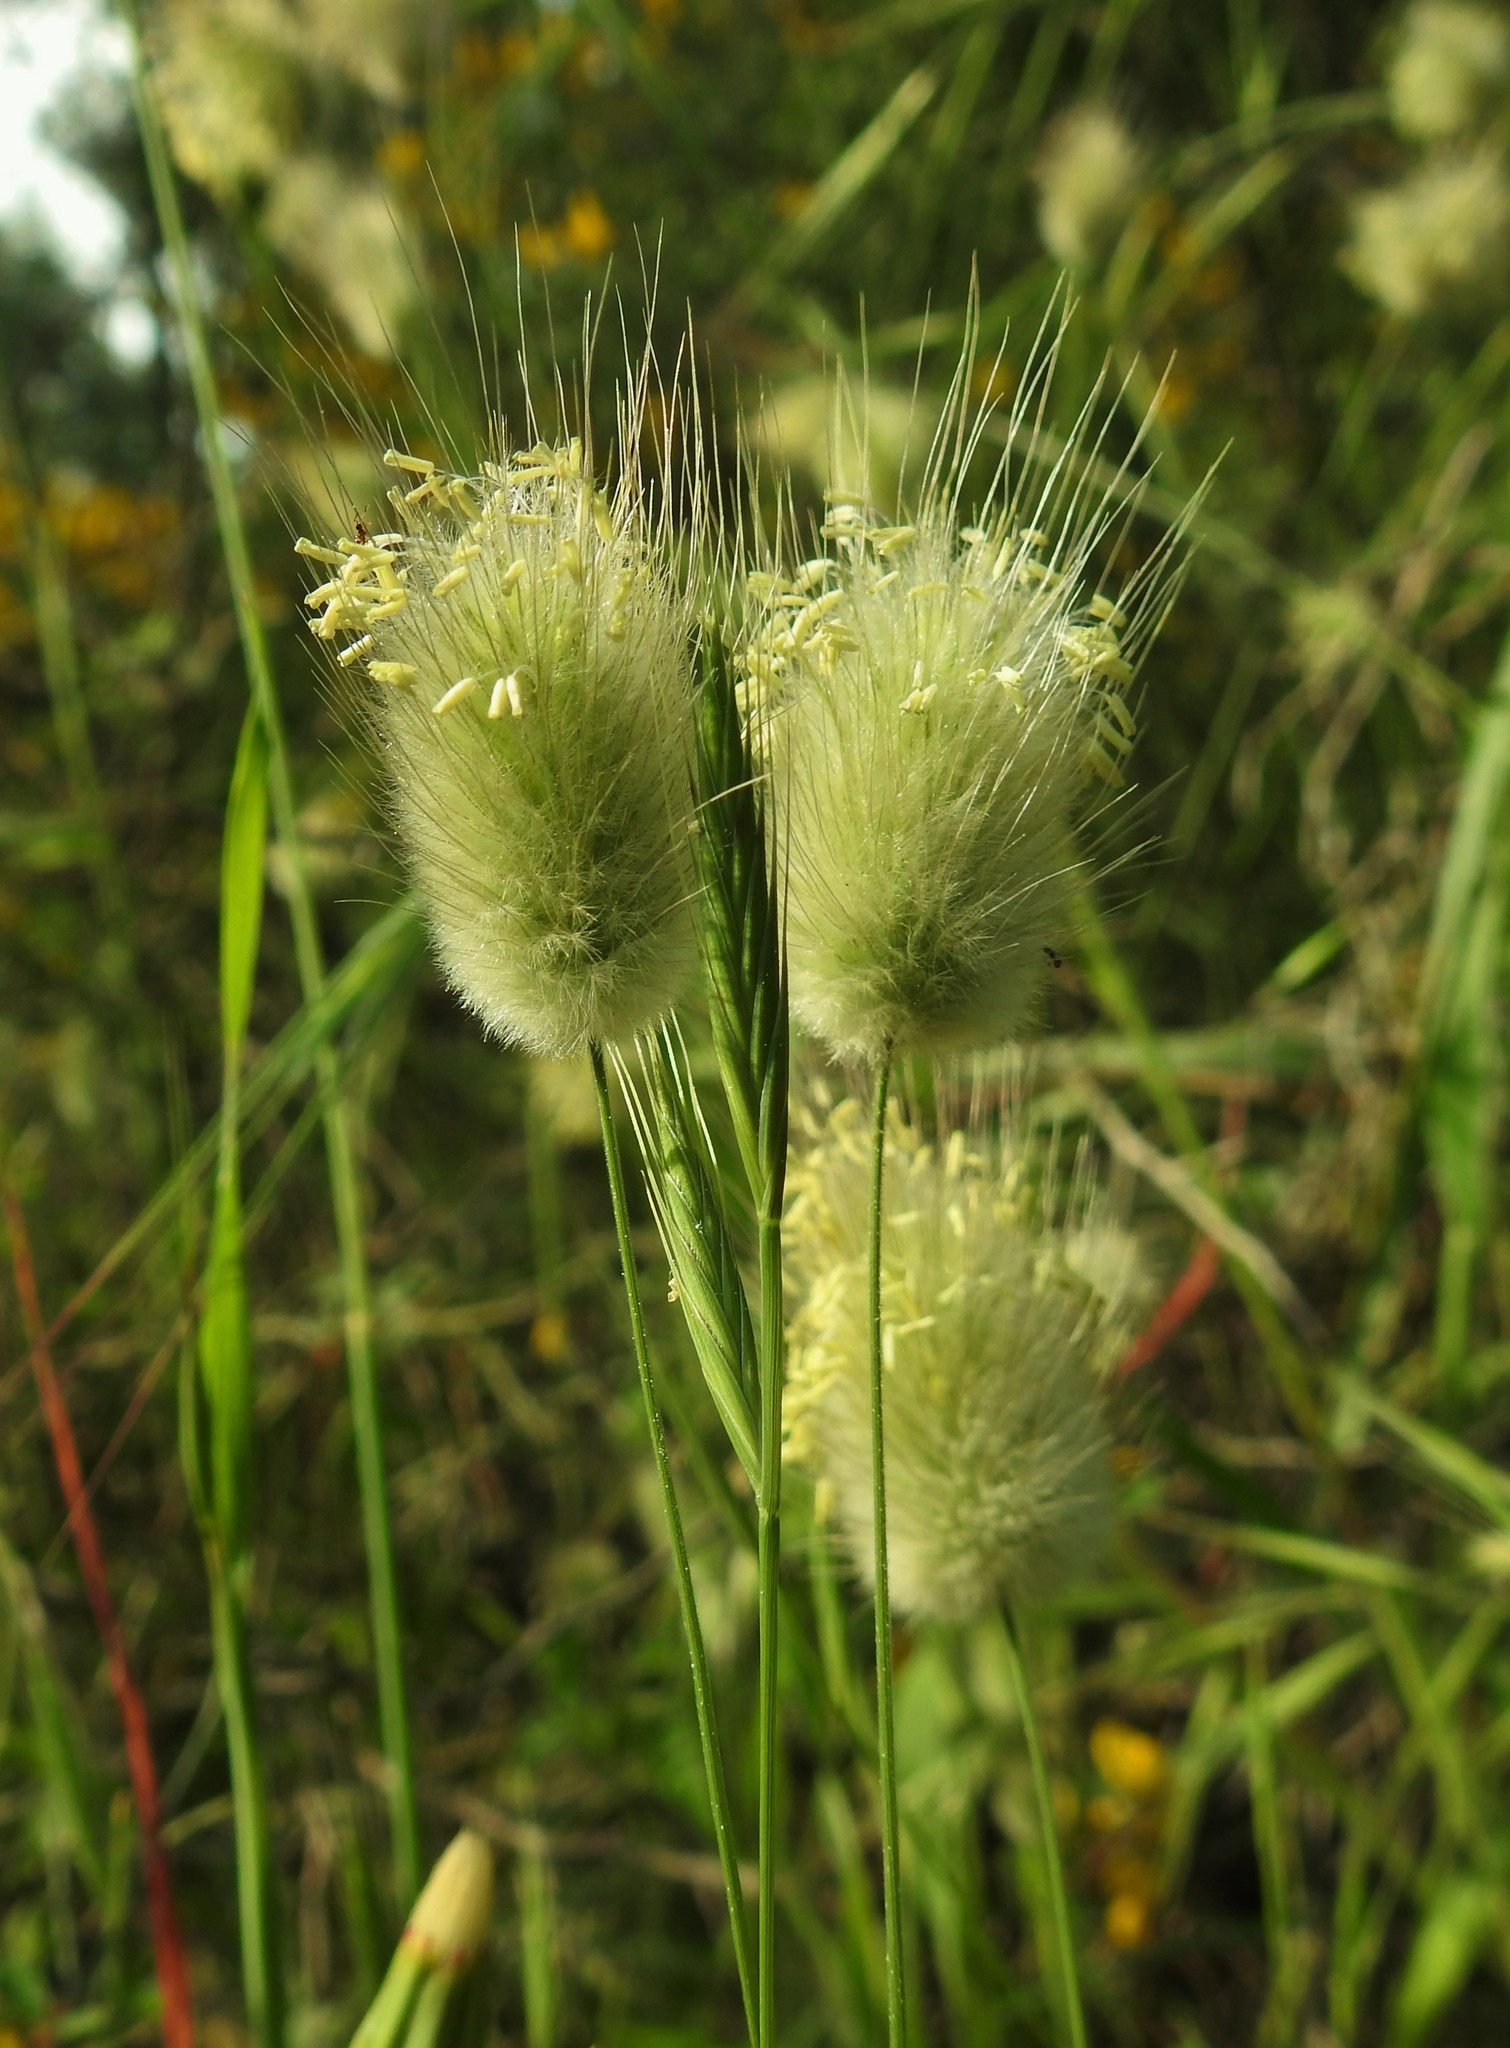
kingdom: Plantae
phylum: Tracheophyta
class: Liliopsida
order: Poales
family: Poaceae
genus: Lagurus
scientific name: Lagurus ovatus
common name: Hare's-tail
